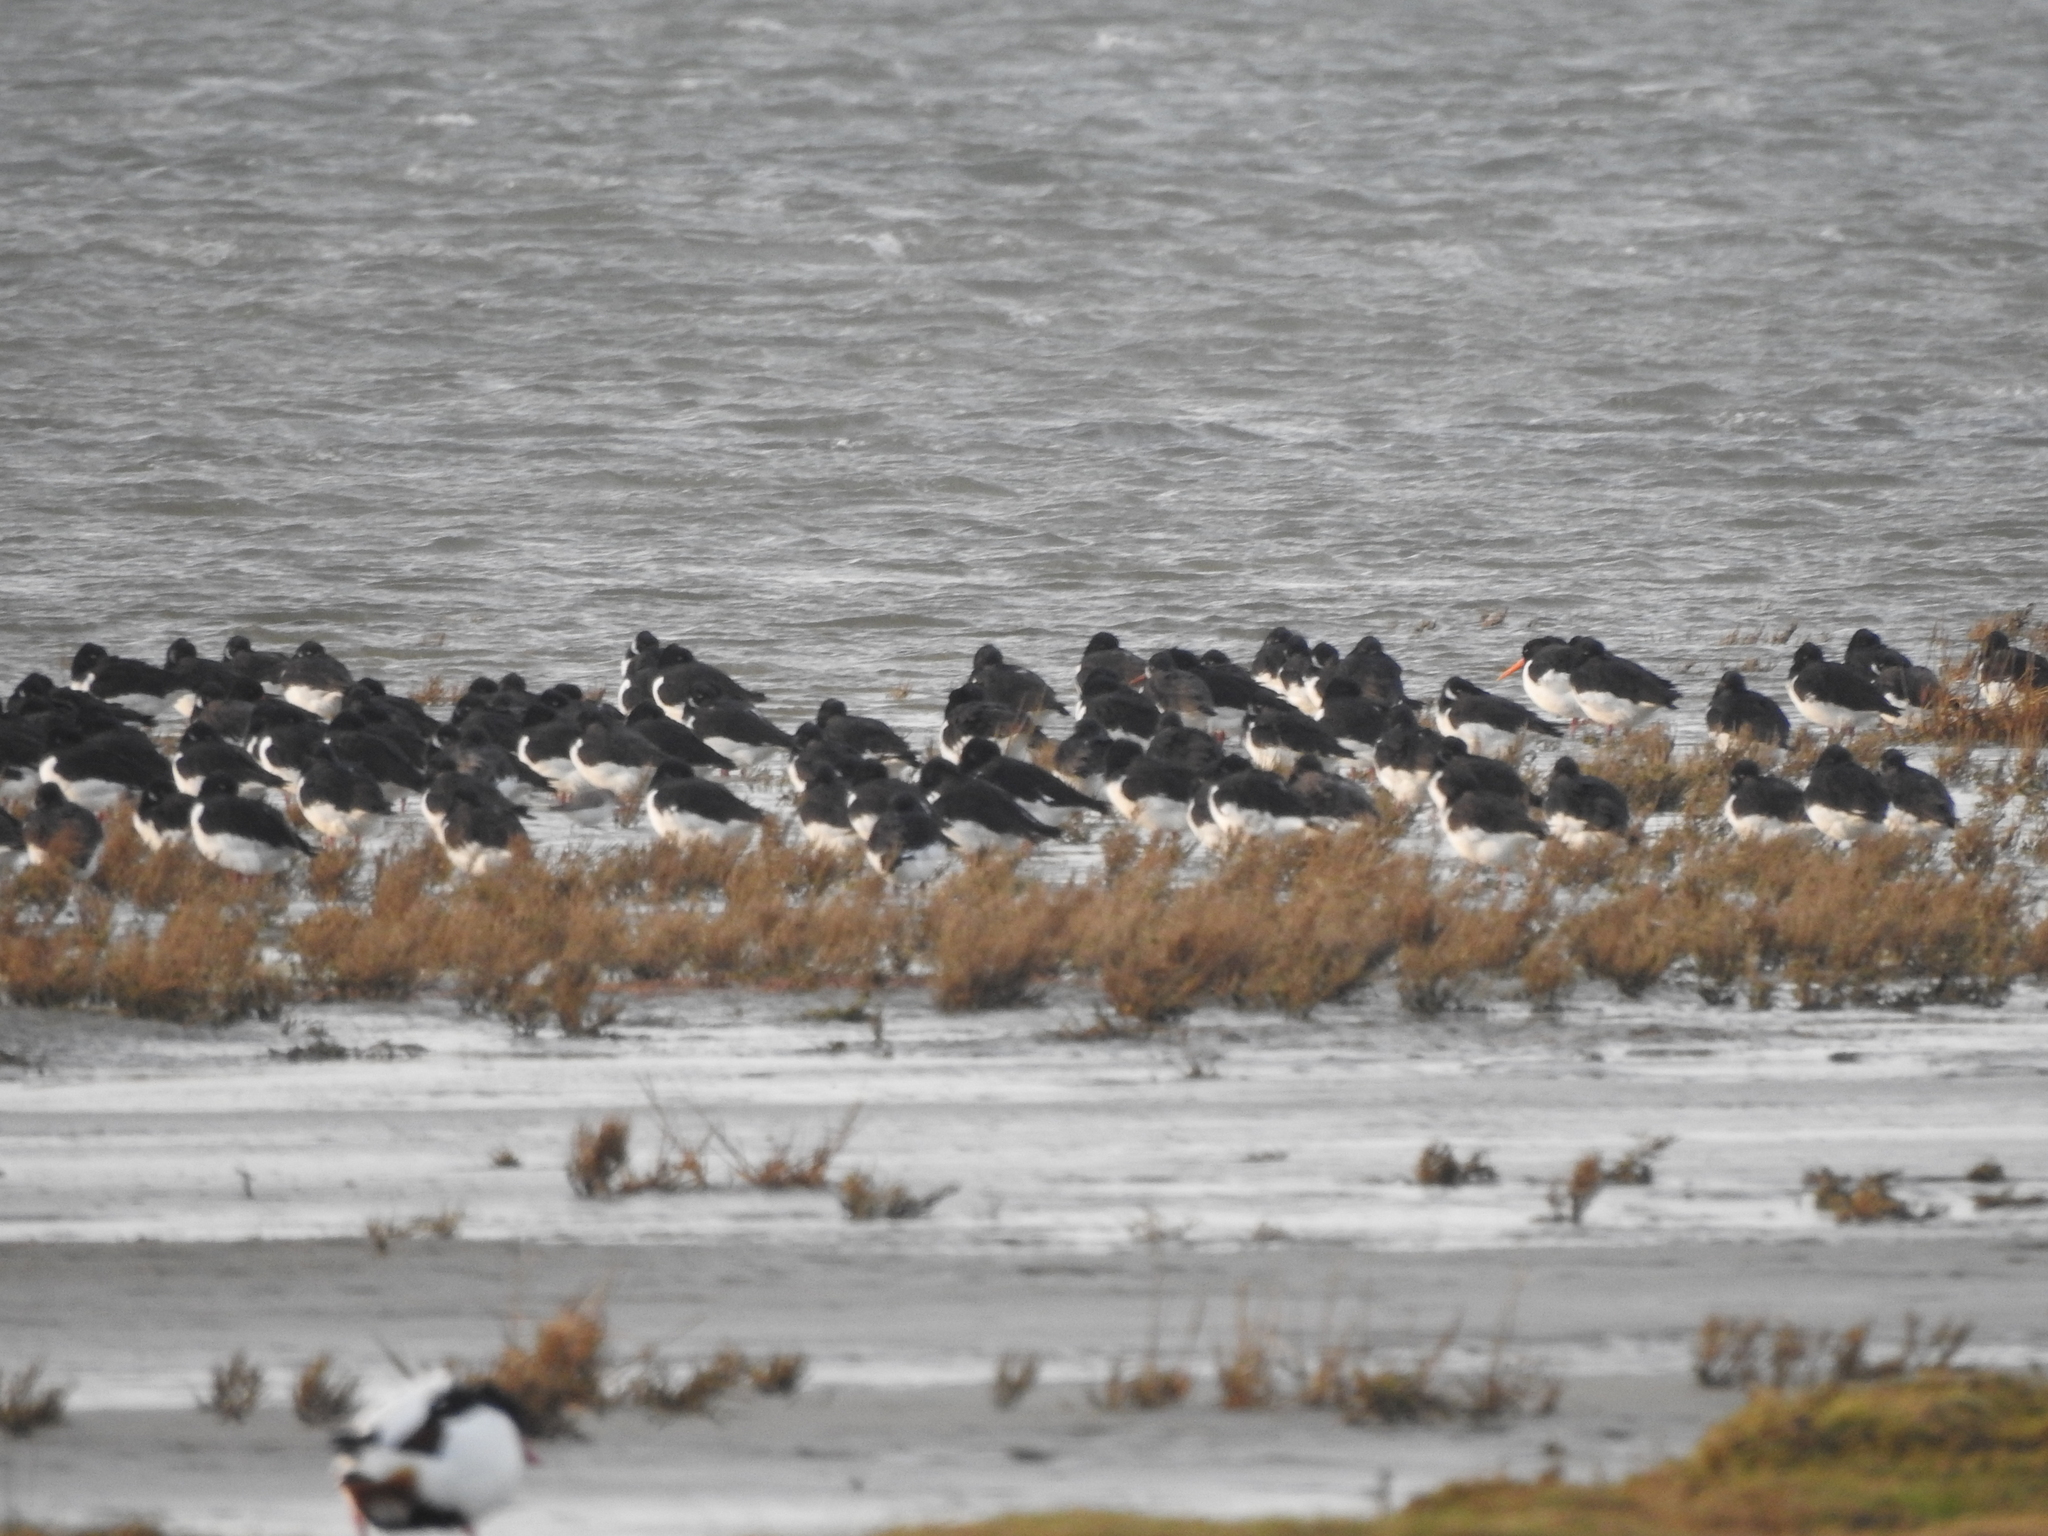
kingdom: Animalia
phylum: Chordata
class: Aves
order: Charadriiformes
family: Haematopodidae
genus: Haematopus
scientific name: Haematopus ostralegus
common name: Eurasian oystercatcher
